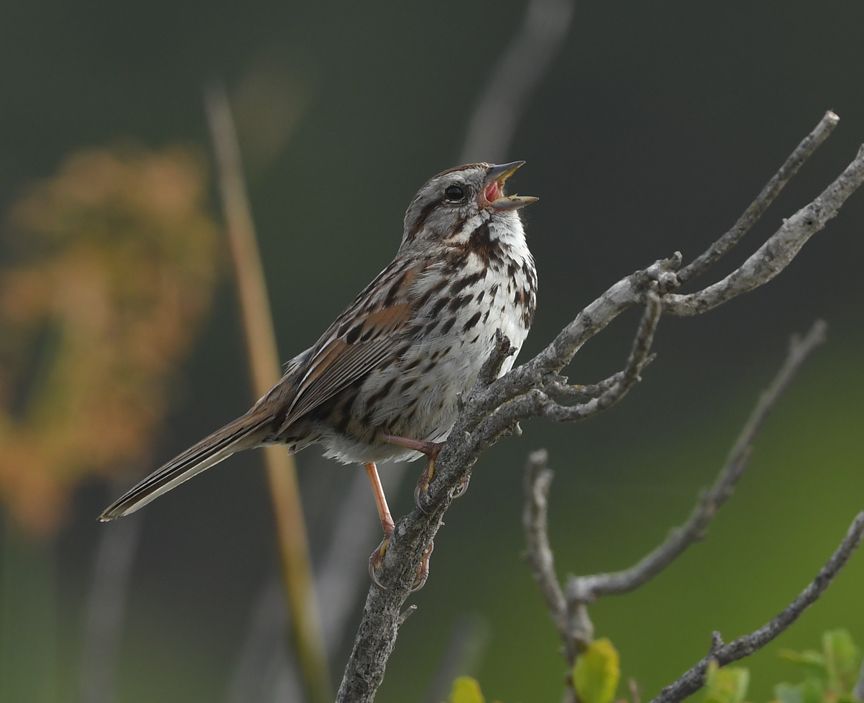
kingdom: Animalia
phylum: Chordata
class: Aves
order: Passeriformes
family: Passerellidae
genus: Melospiza
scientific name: Melospiza melodia
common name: Song sparrow
